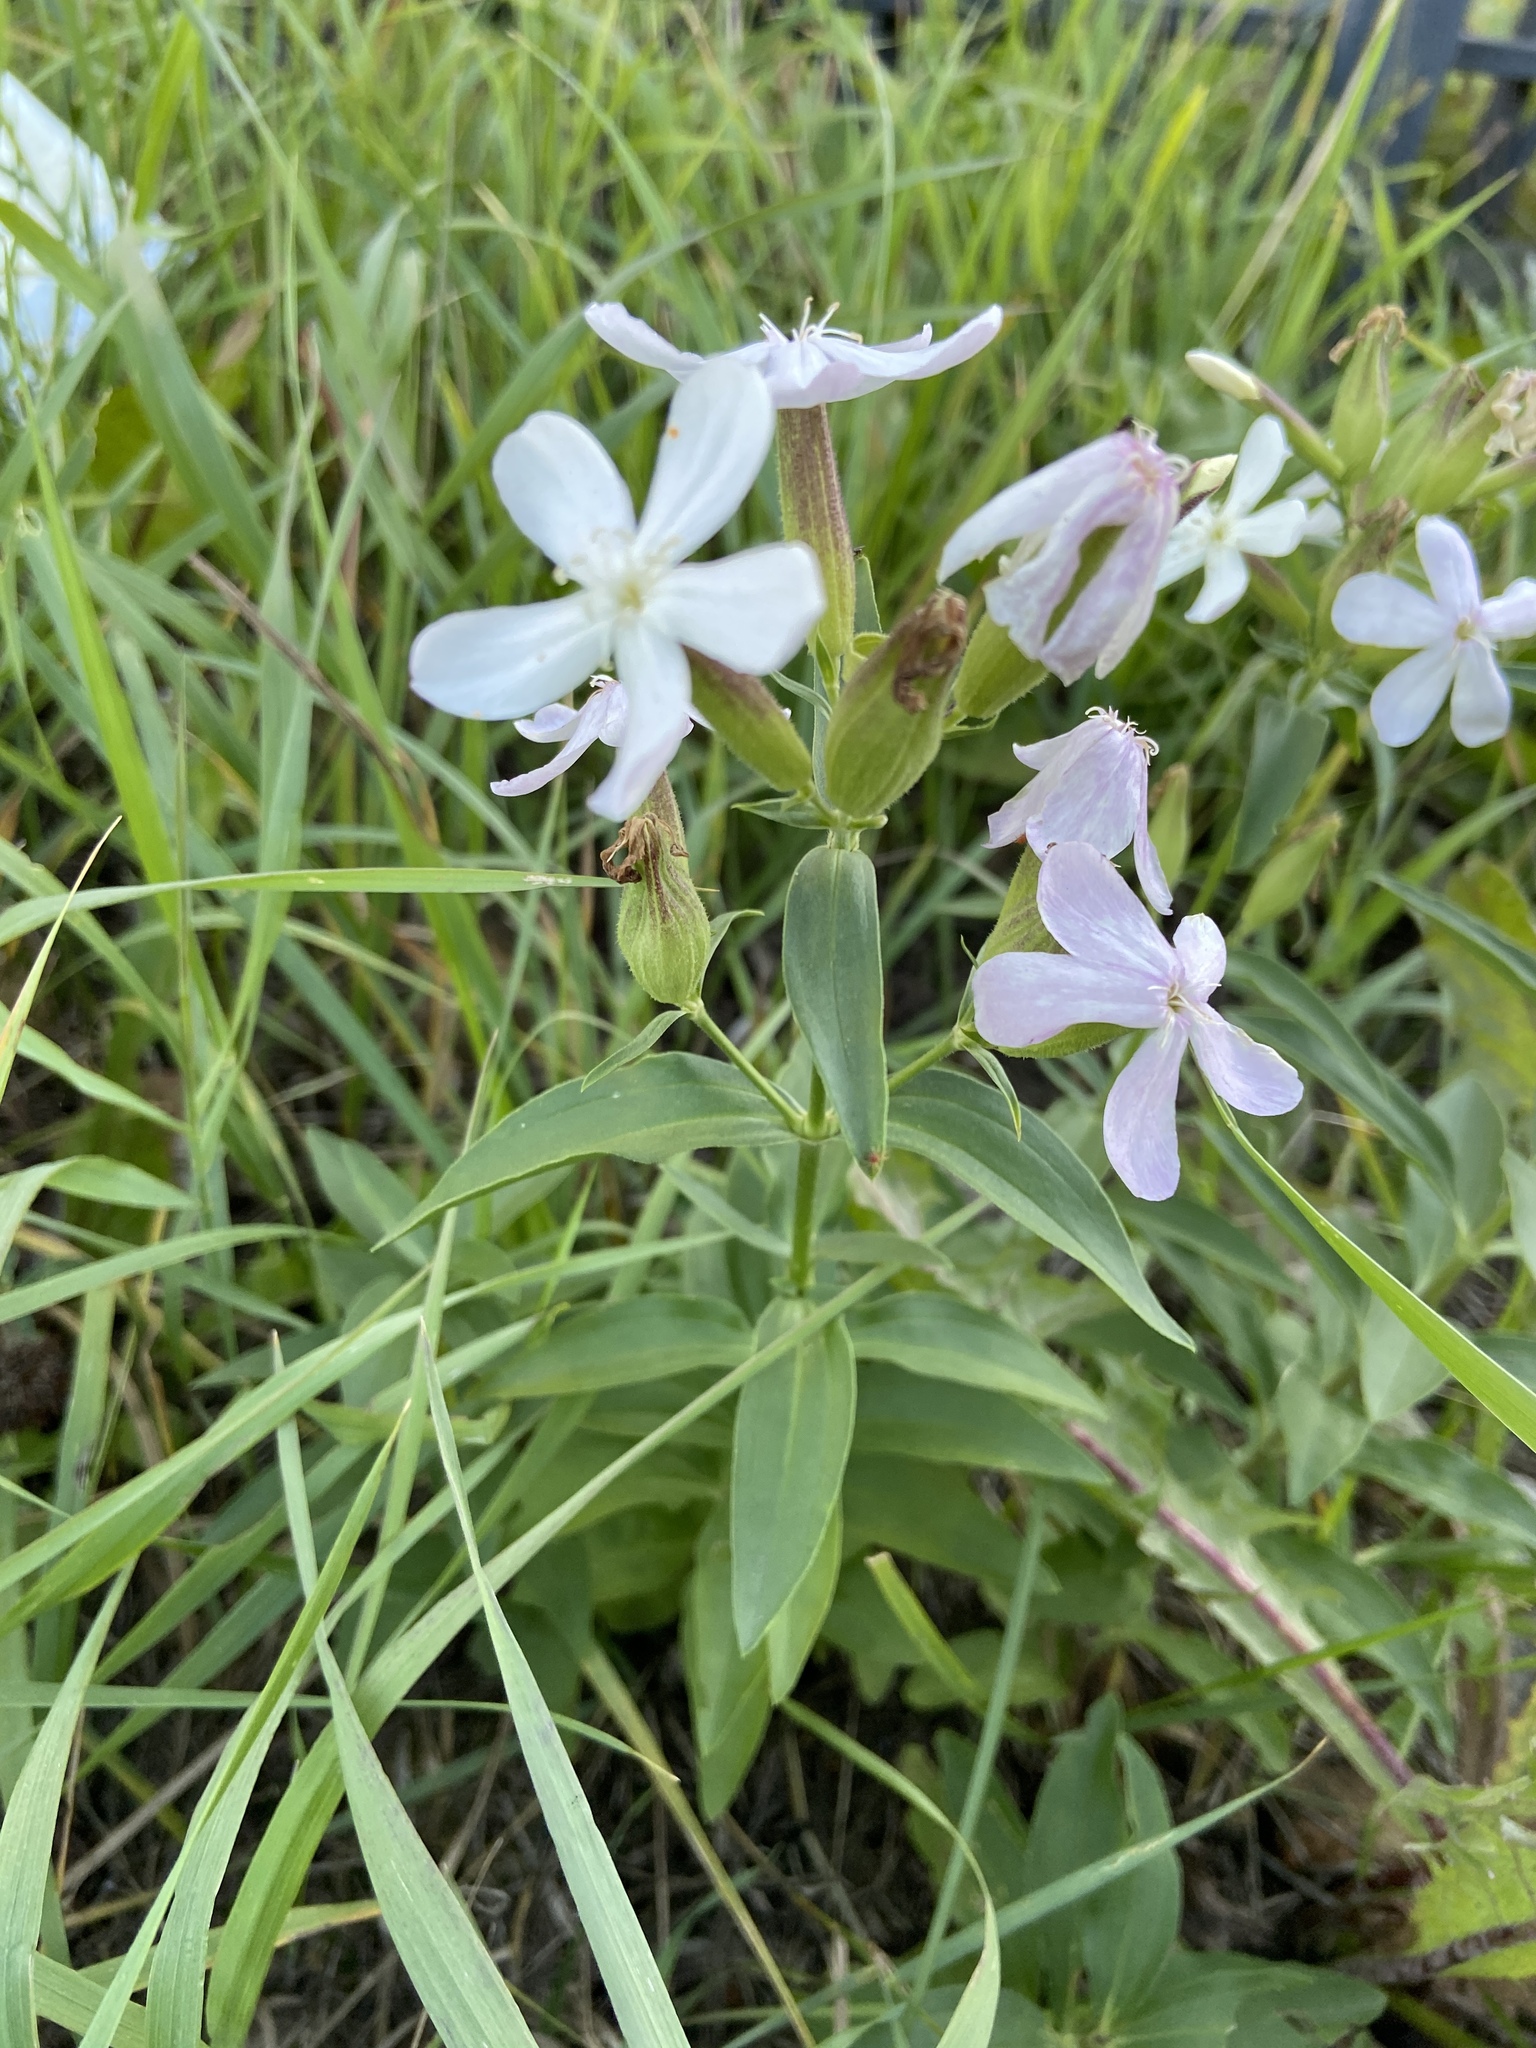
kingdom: Plantae
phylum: Tracheophyta
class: Magnoliopsida
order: Caryophyllales
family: Caryophyllaceae
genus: Saponaria
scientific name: Saponaria officinalis
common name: Soapwort
